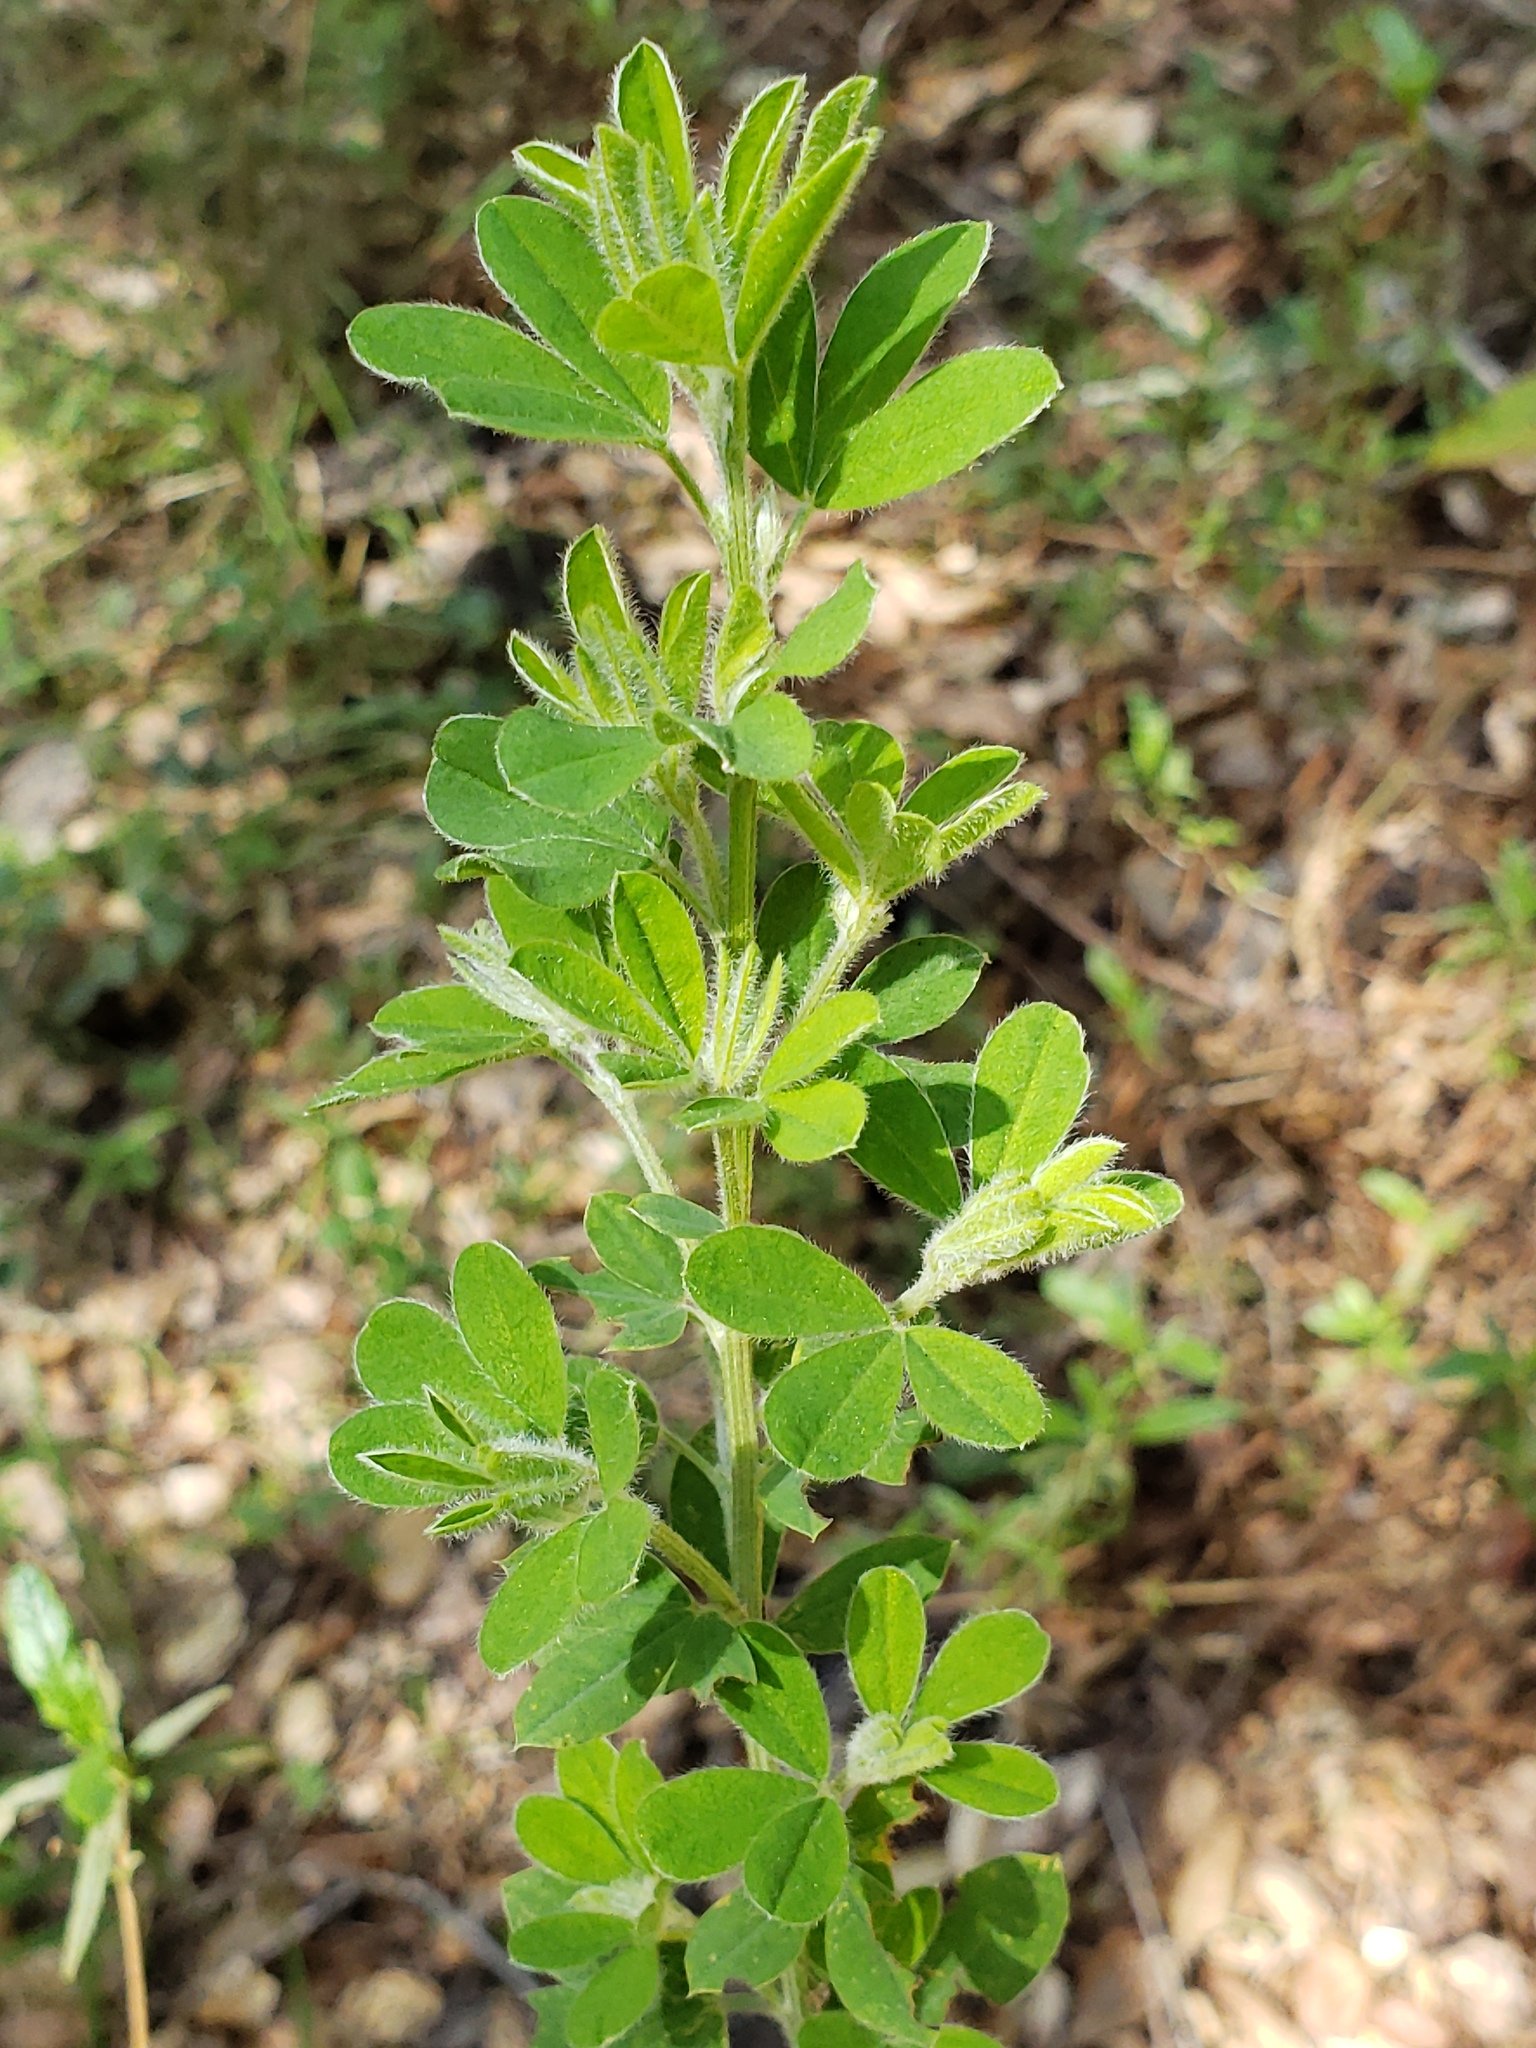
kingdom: Plantae
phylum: Tracheophyta
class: Magnoliopsida
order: Fabales
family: Fabaceae
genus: Genista
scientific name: Genista monspessulana
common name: Montpellier broom
